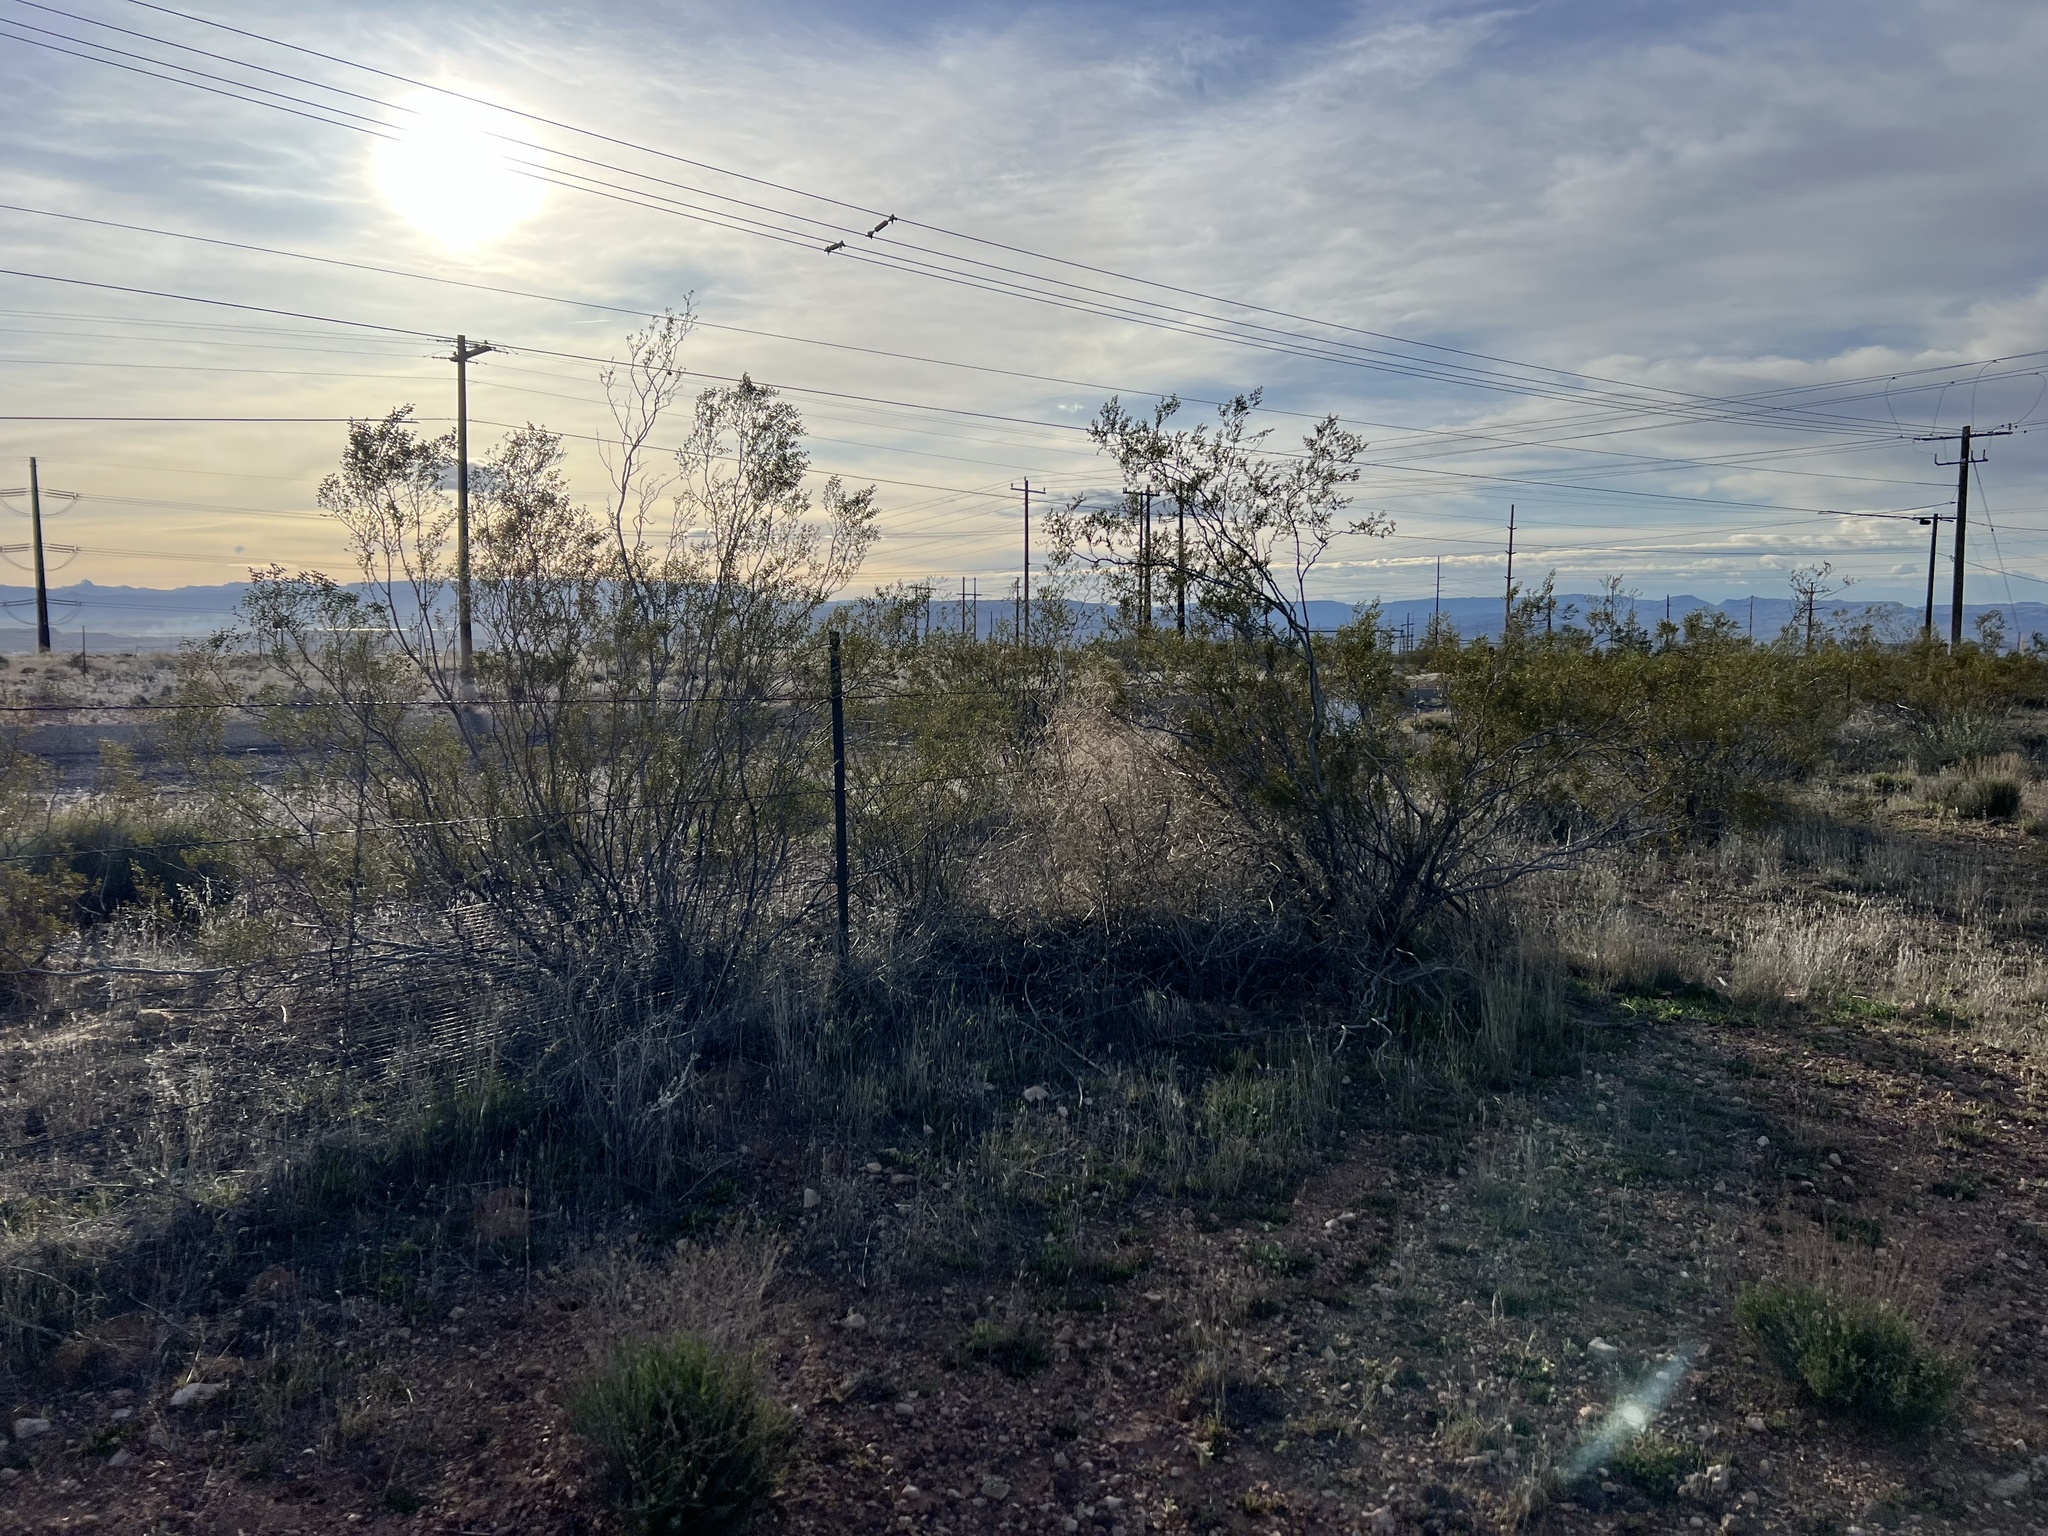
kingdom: Plantae
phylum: Tracheophyta
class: Magnoliopsida
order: Zygophyllales
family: Zygophyllaceae
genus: Larrea
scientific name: Larrea tridentata
